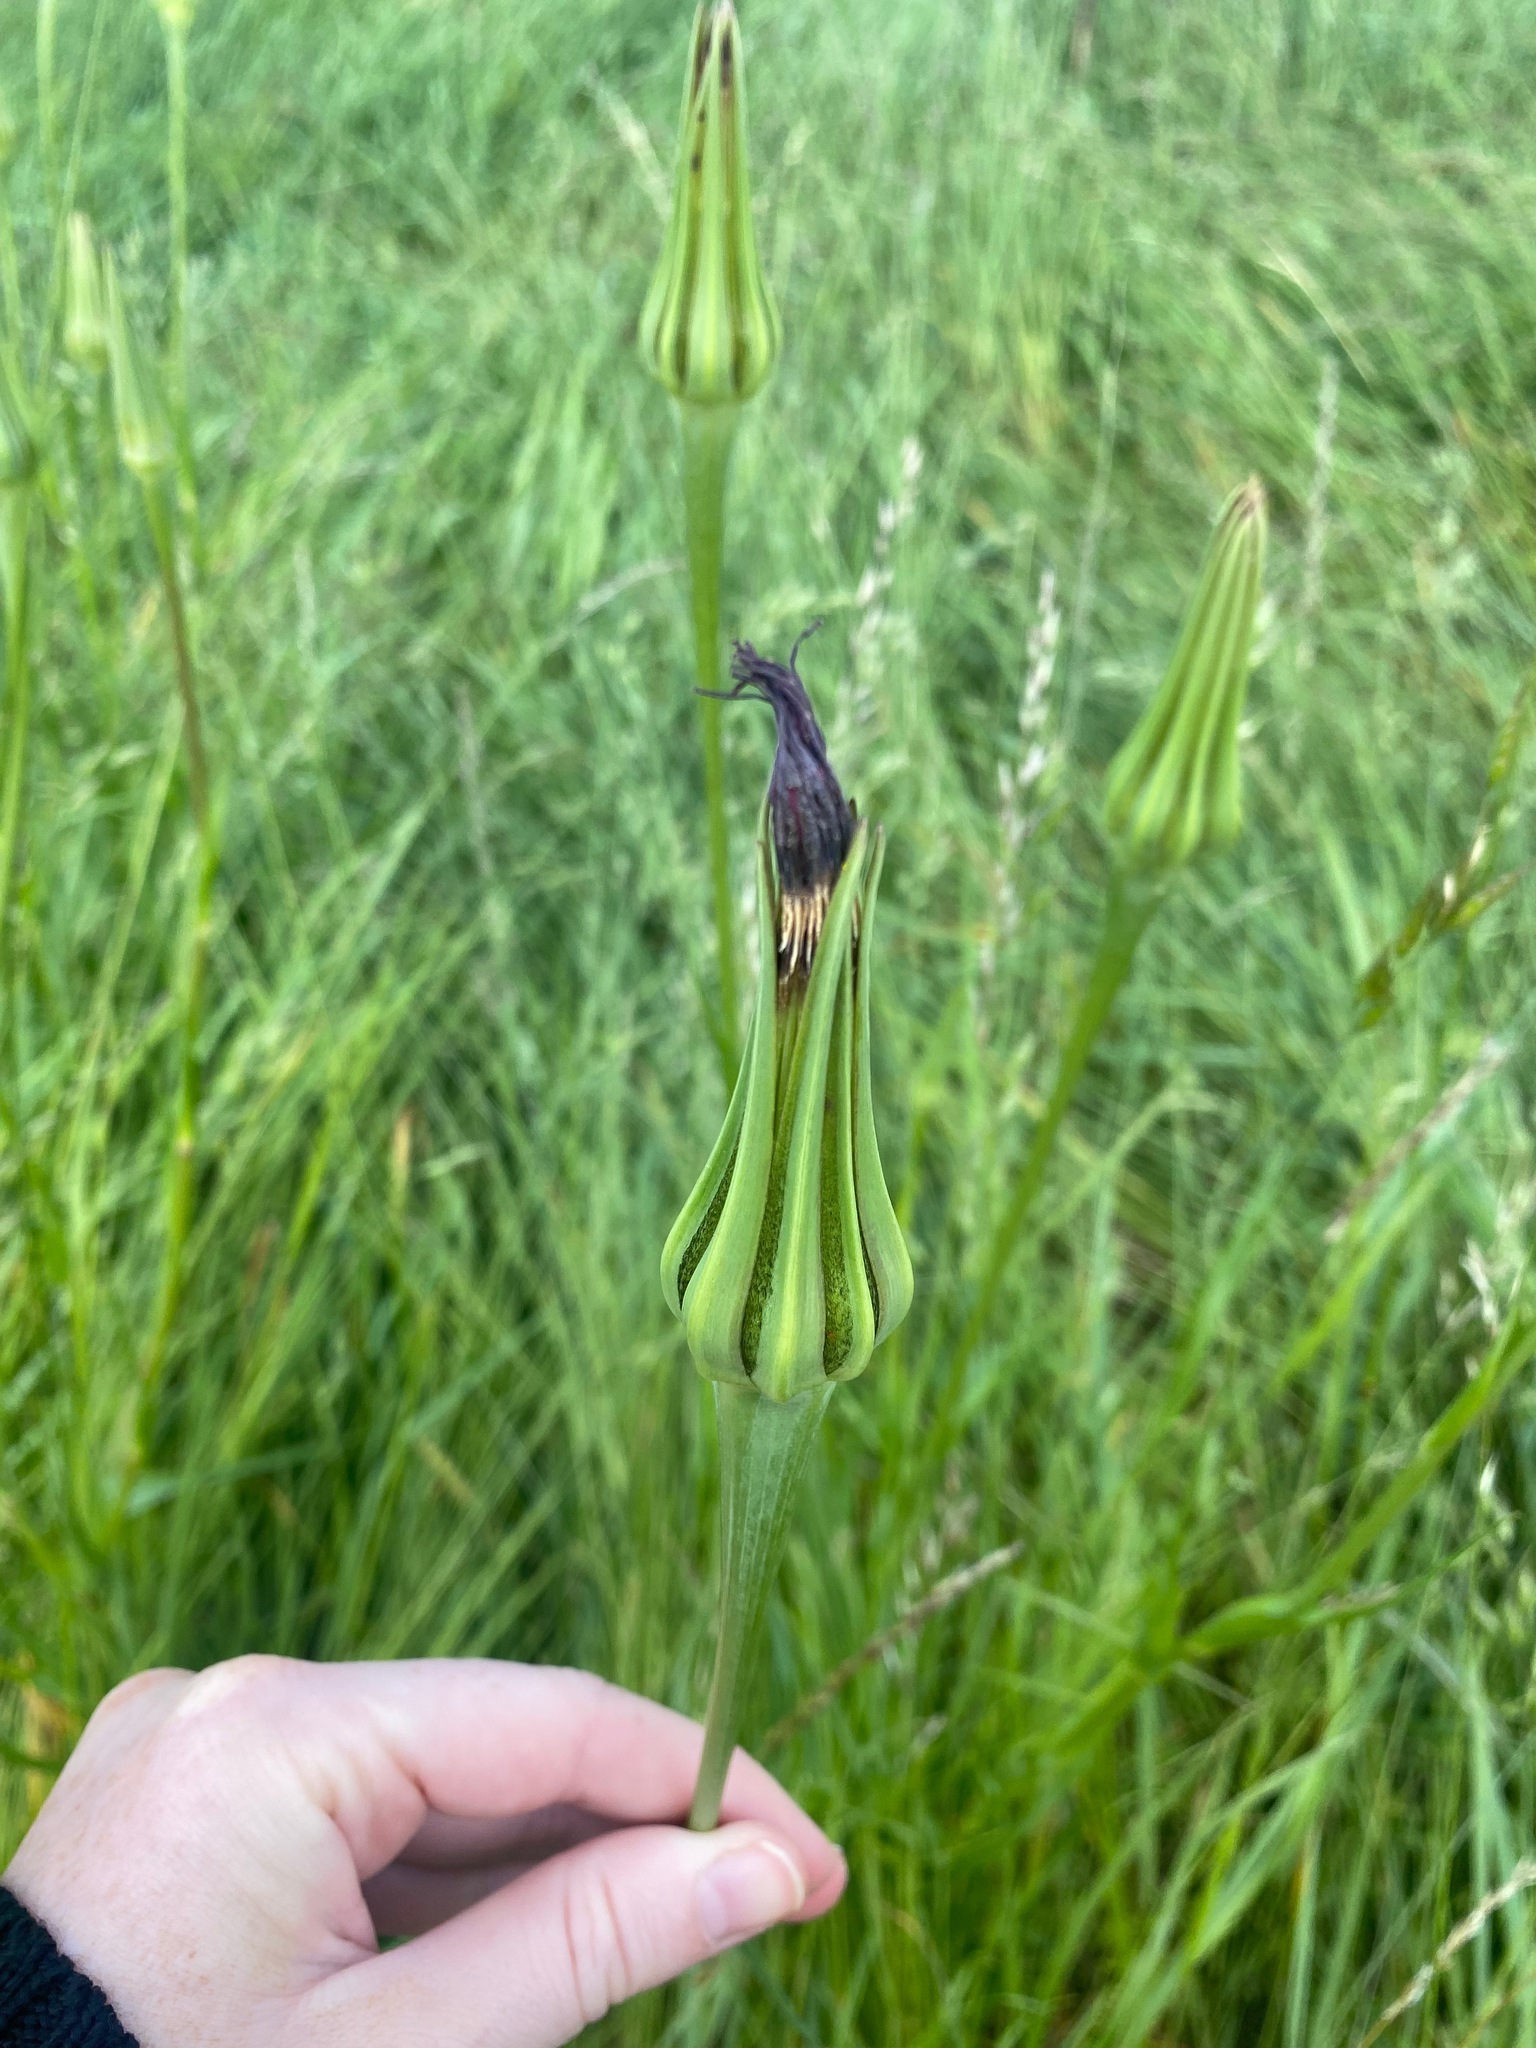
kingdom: Plantae
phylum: Tracheophyta
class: Magnoliopsida
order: Asterales
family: Asteraceae
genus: Tragopogon
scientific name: Tragopogon porrifolius
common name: Salsify
